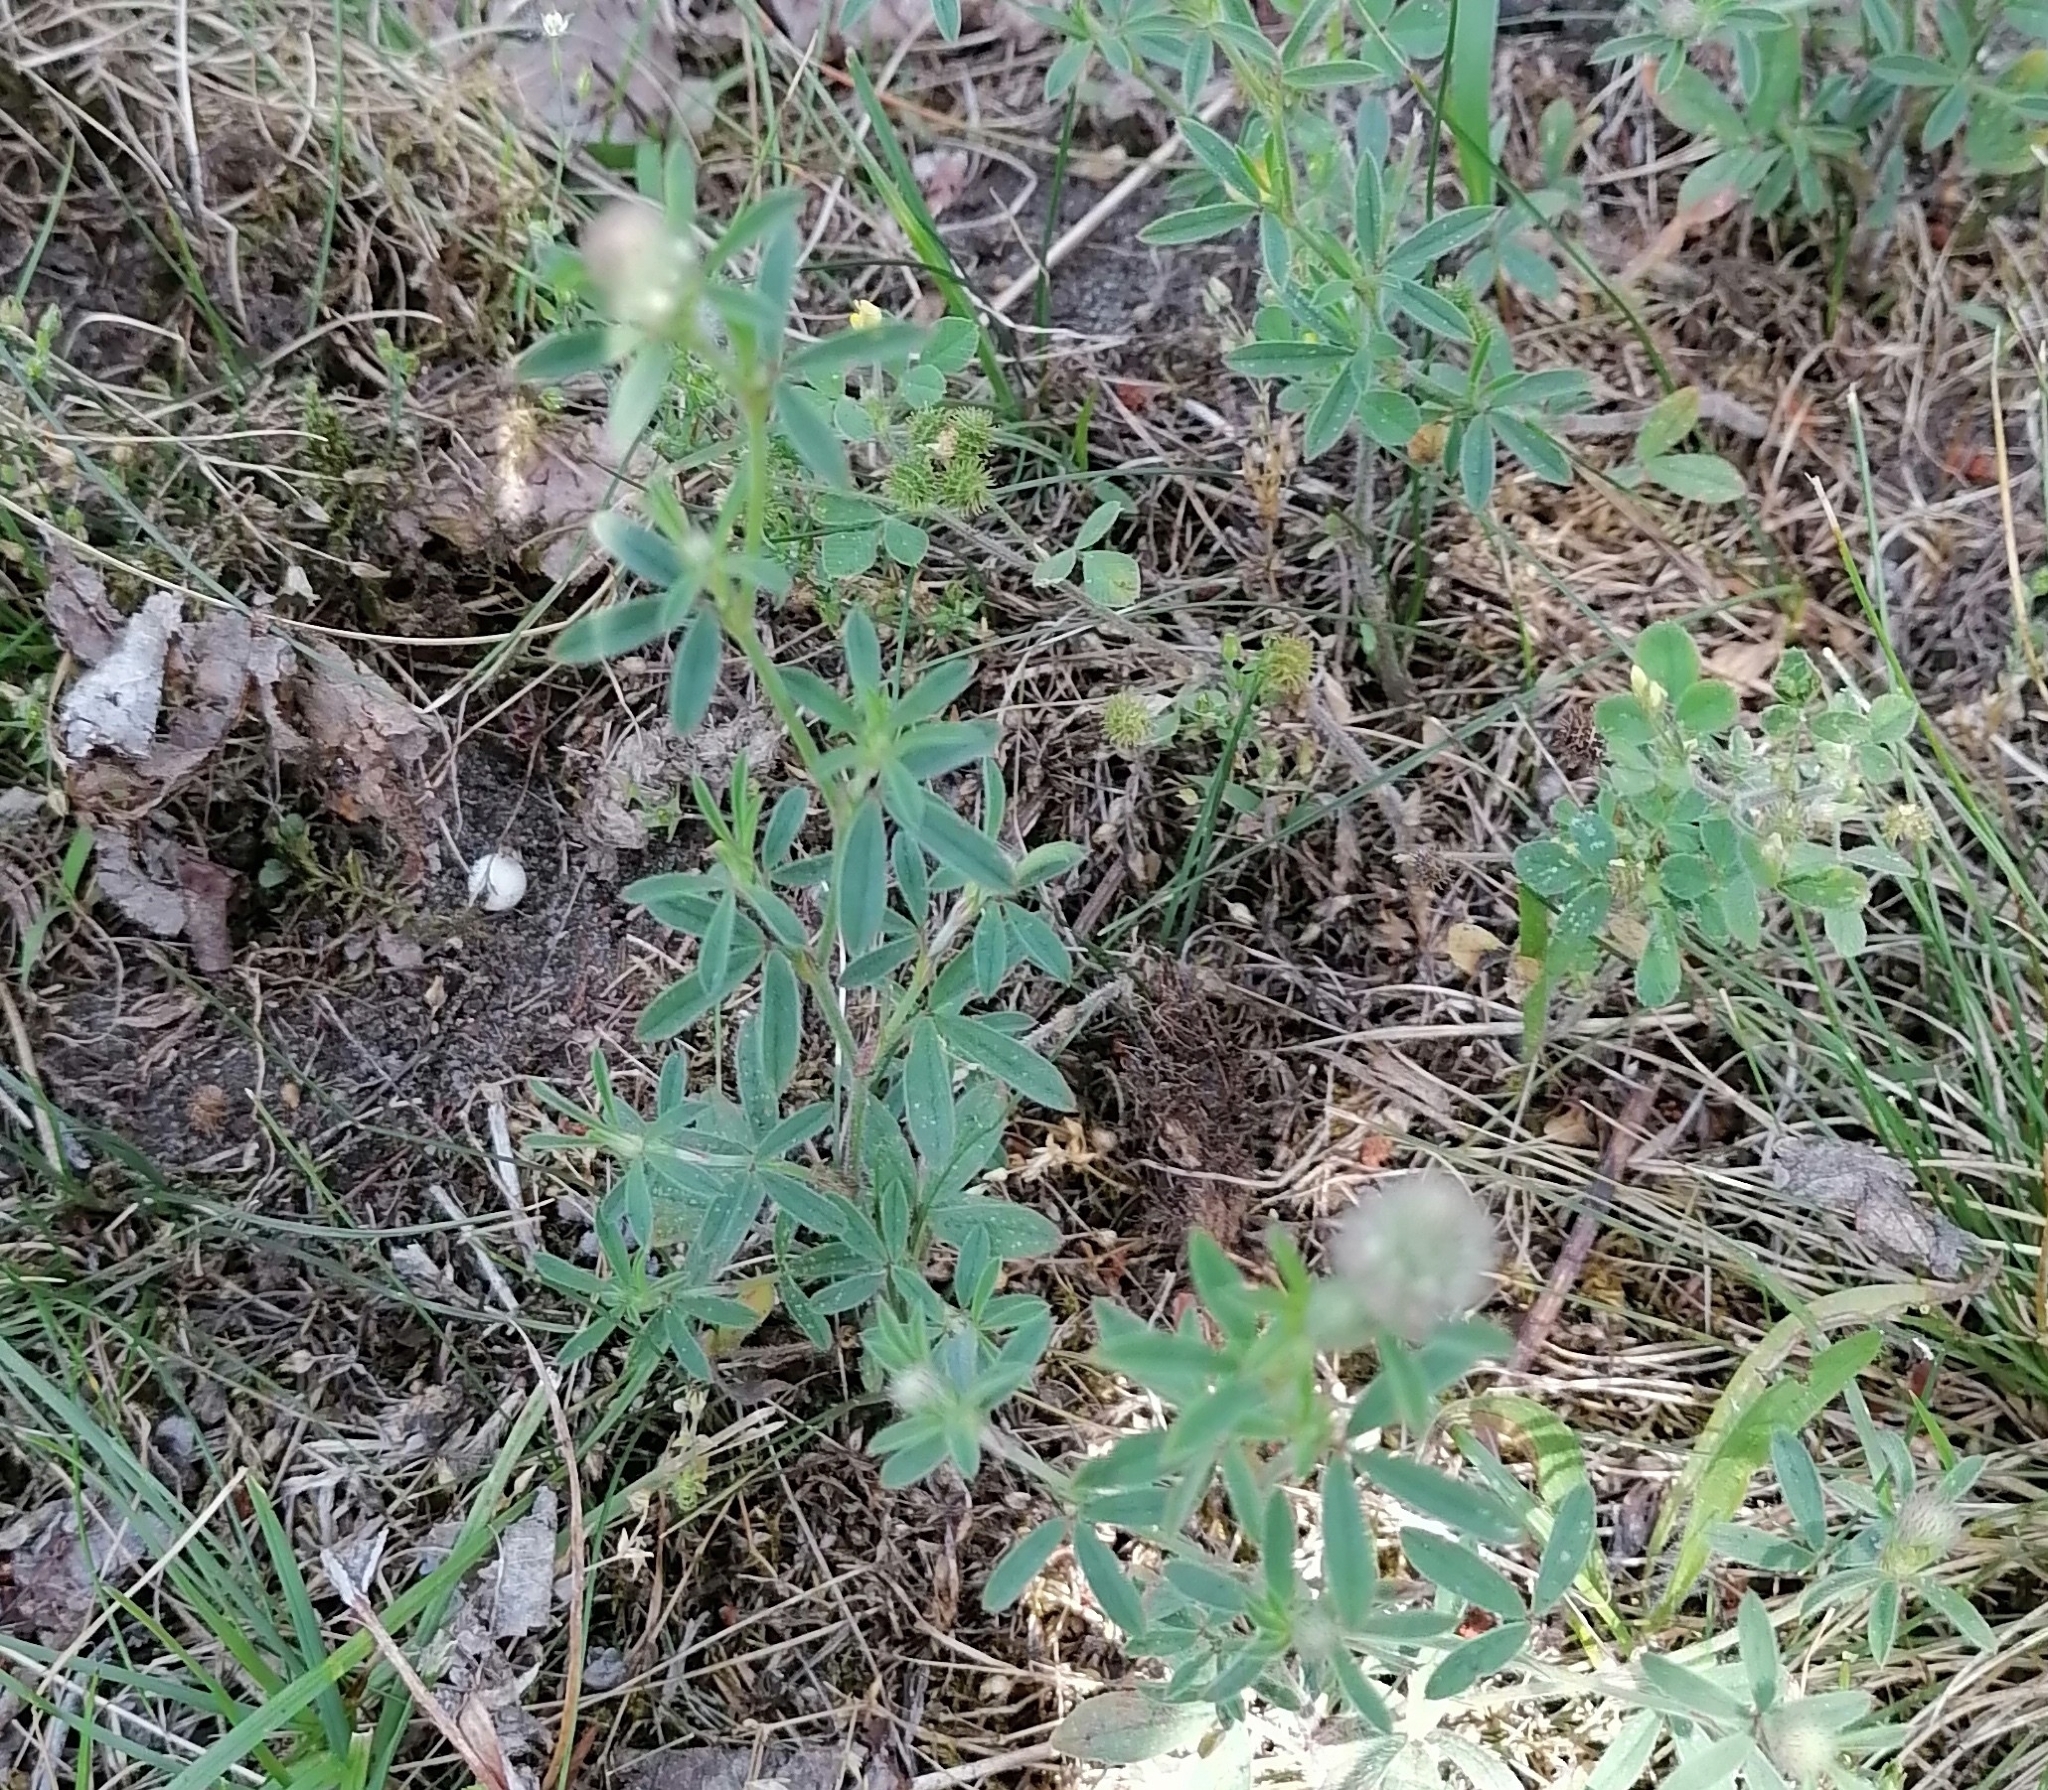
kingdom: Plantae
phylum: Tracheophyta
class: Magnoliopsida
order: Fabales
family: Fabaceae
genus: Trifolium
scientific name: Trifolium arvense
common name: Hare's-foot clover
